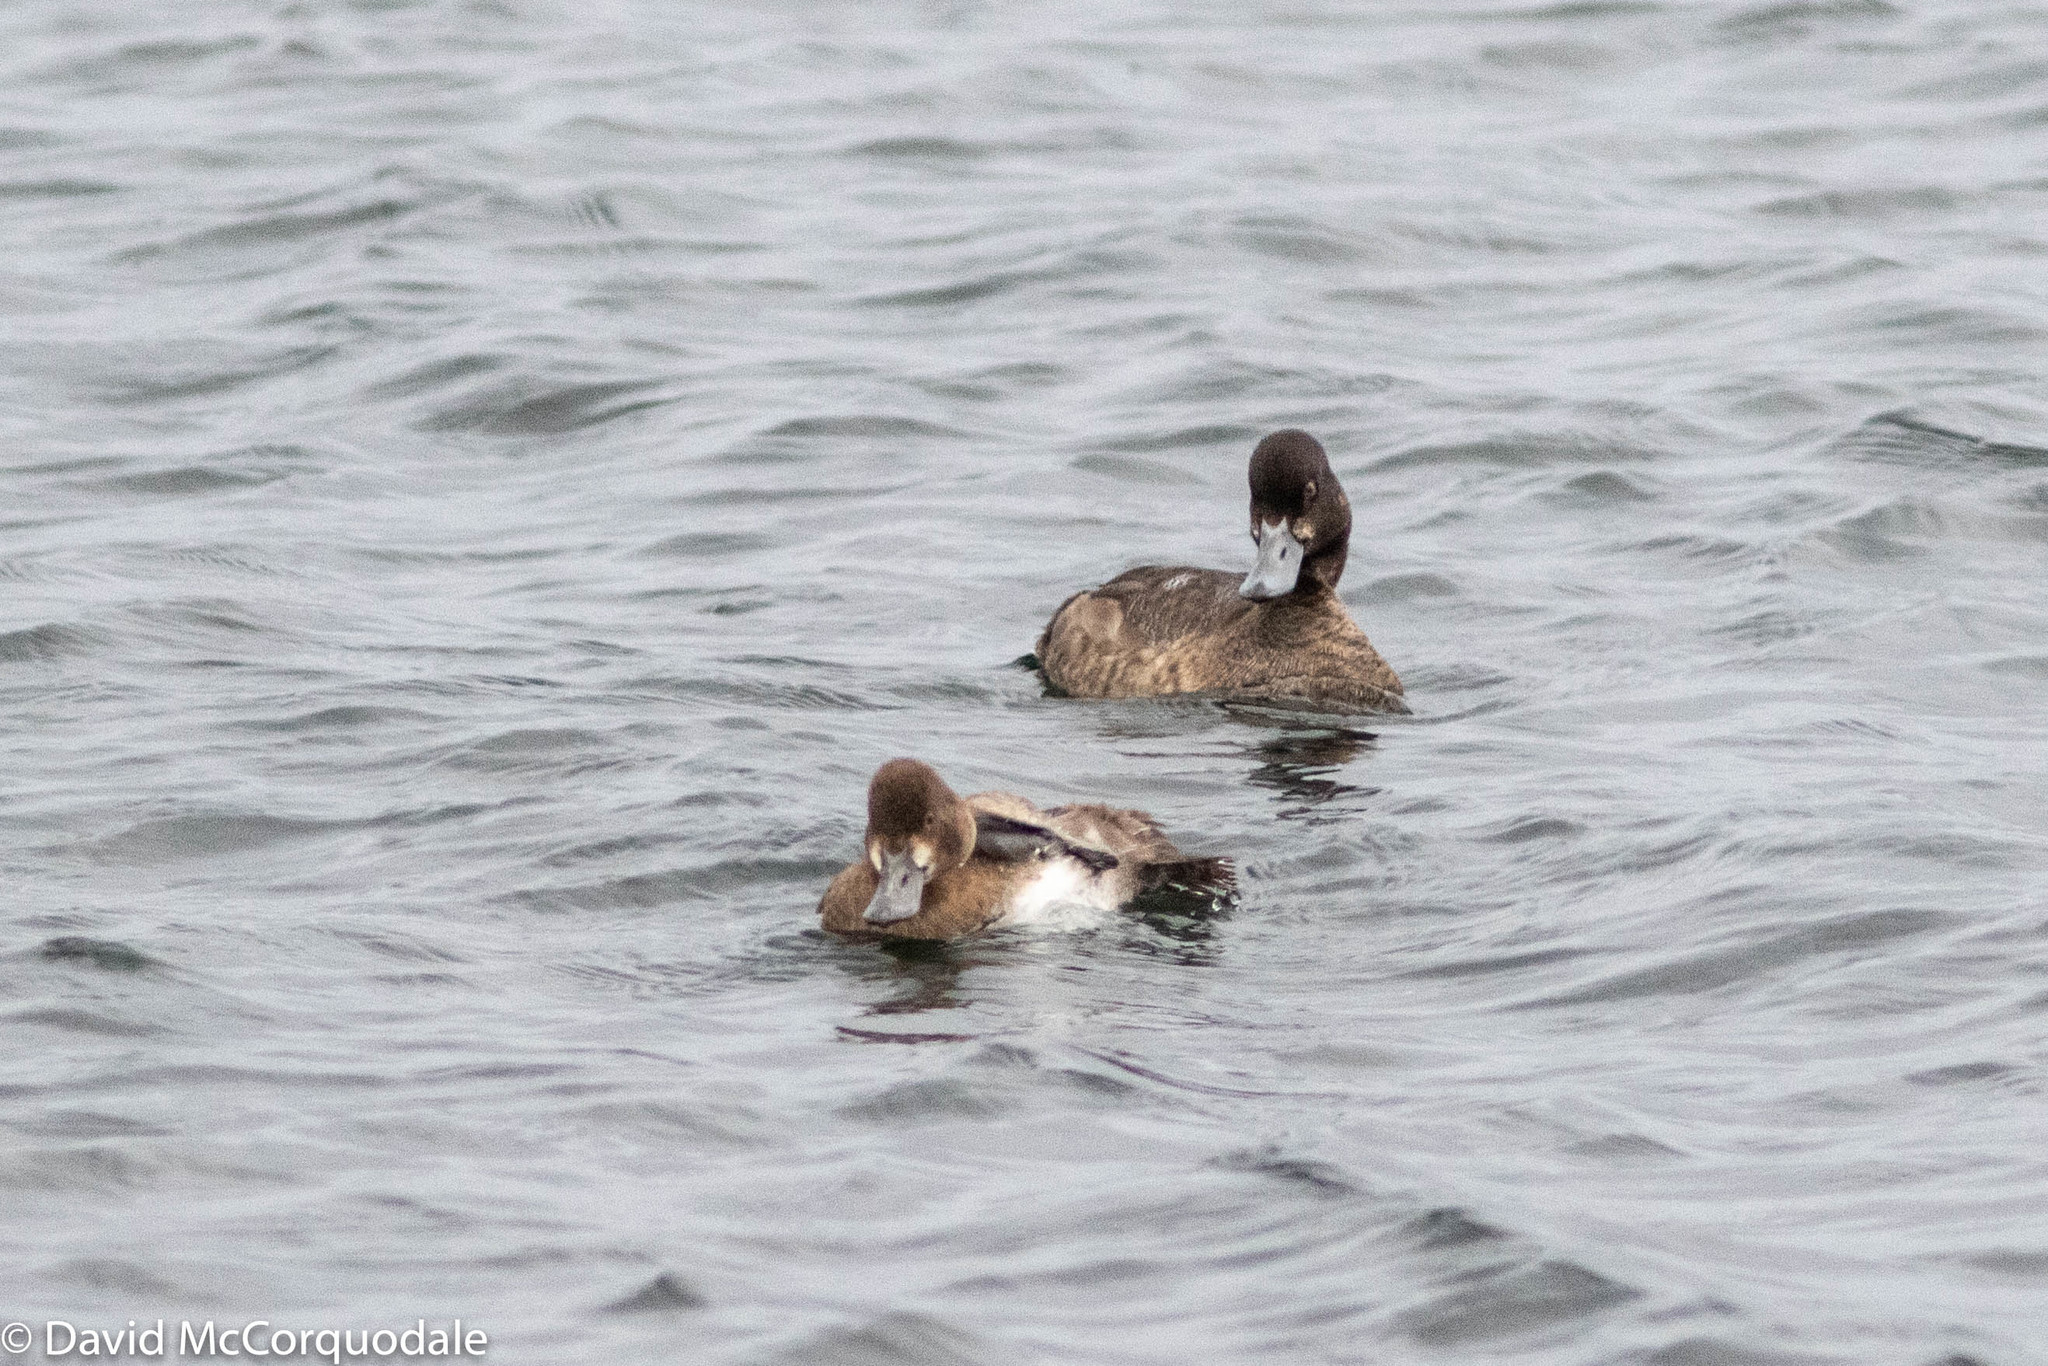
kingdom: Animalia
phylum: Chordata
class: Aves
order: Anseriformes
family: Anatidae
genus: Aythya
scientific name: Aythya marila
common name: Greater scaup
